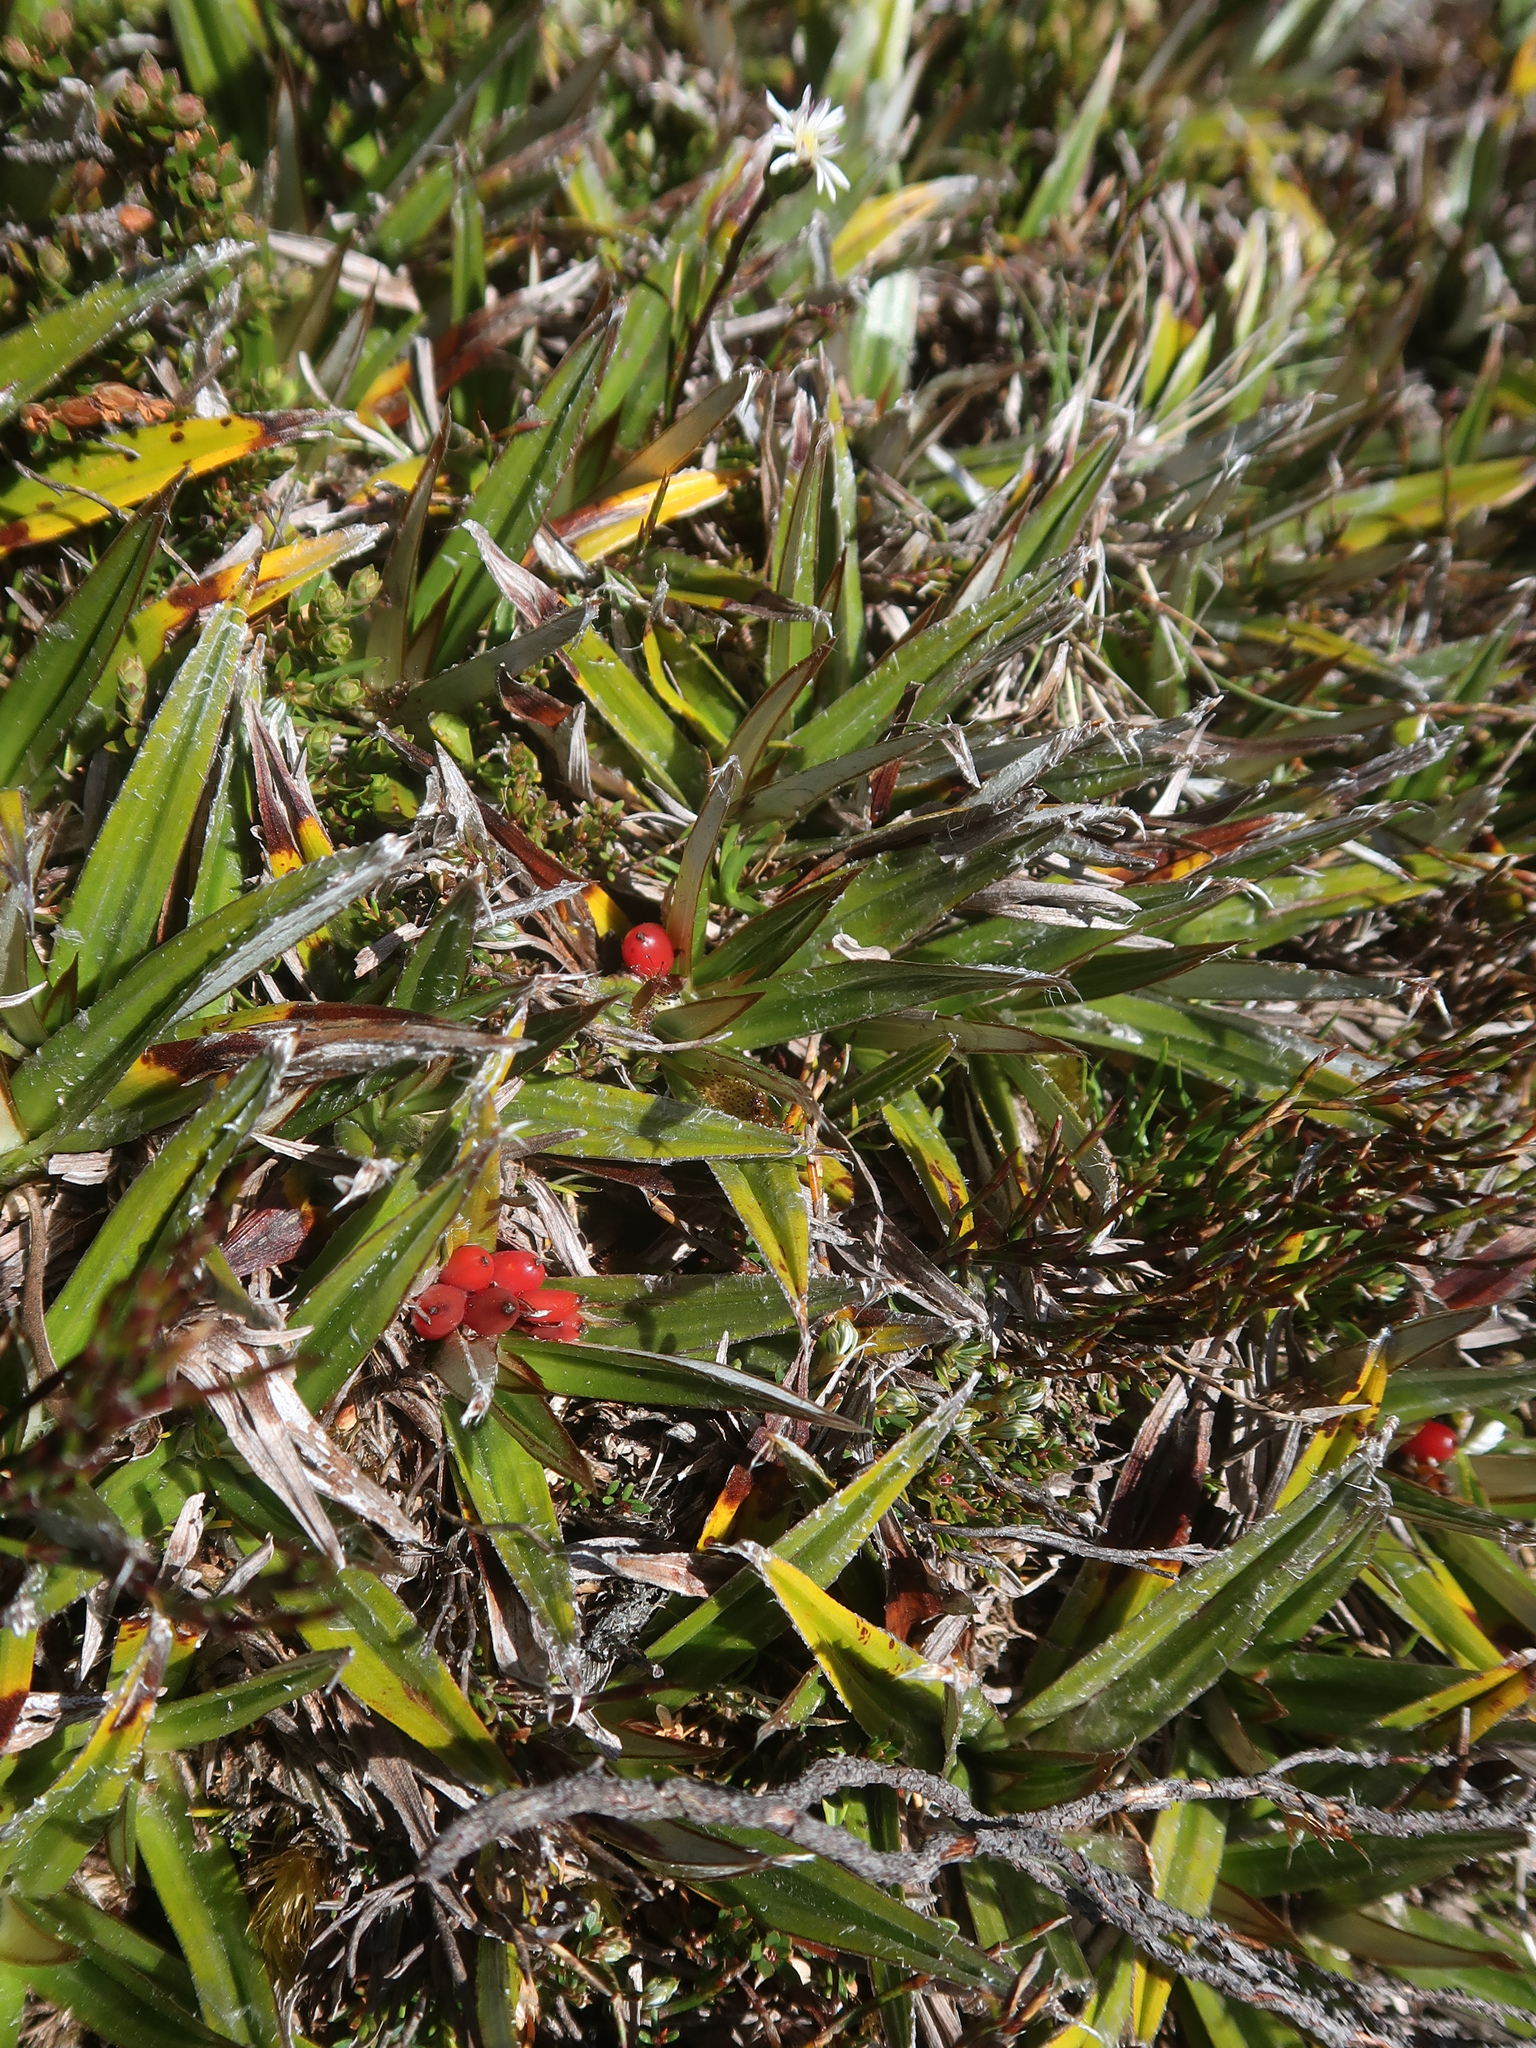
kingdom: Plantae
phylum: Tracheophyta
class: Liliopsida
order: Asparagales
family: Asteliaceae
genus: Astelia
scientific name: Astelia alpina
